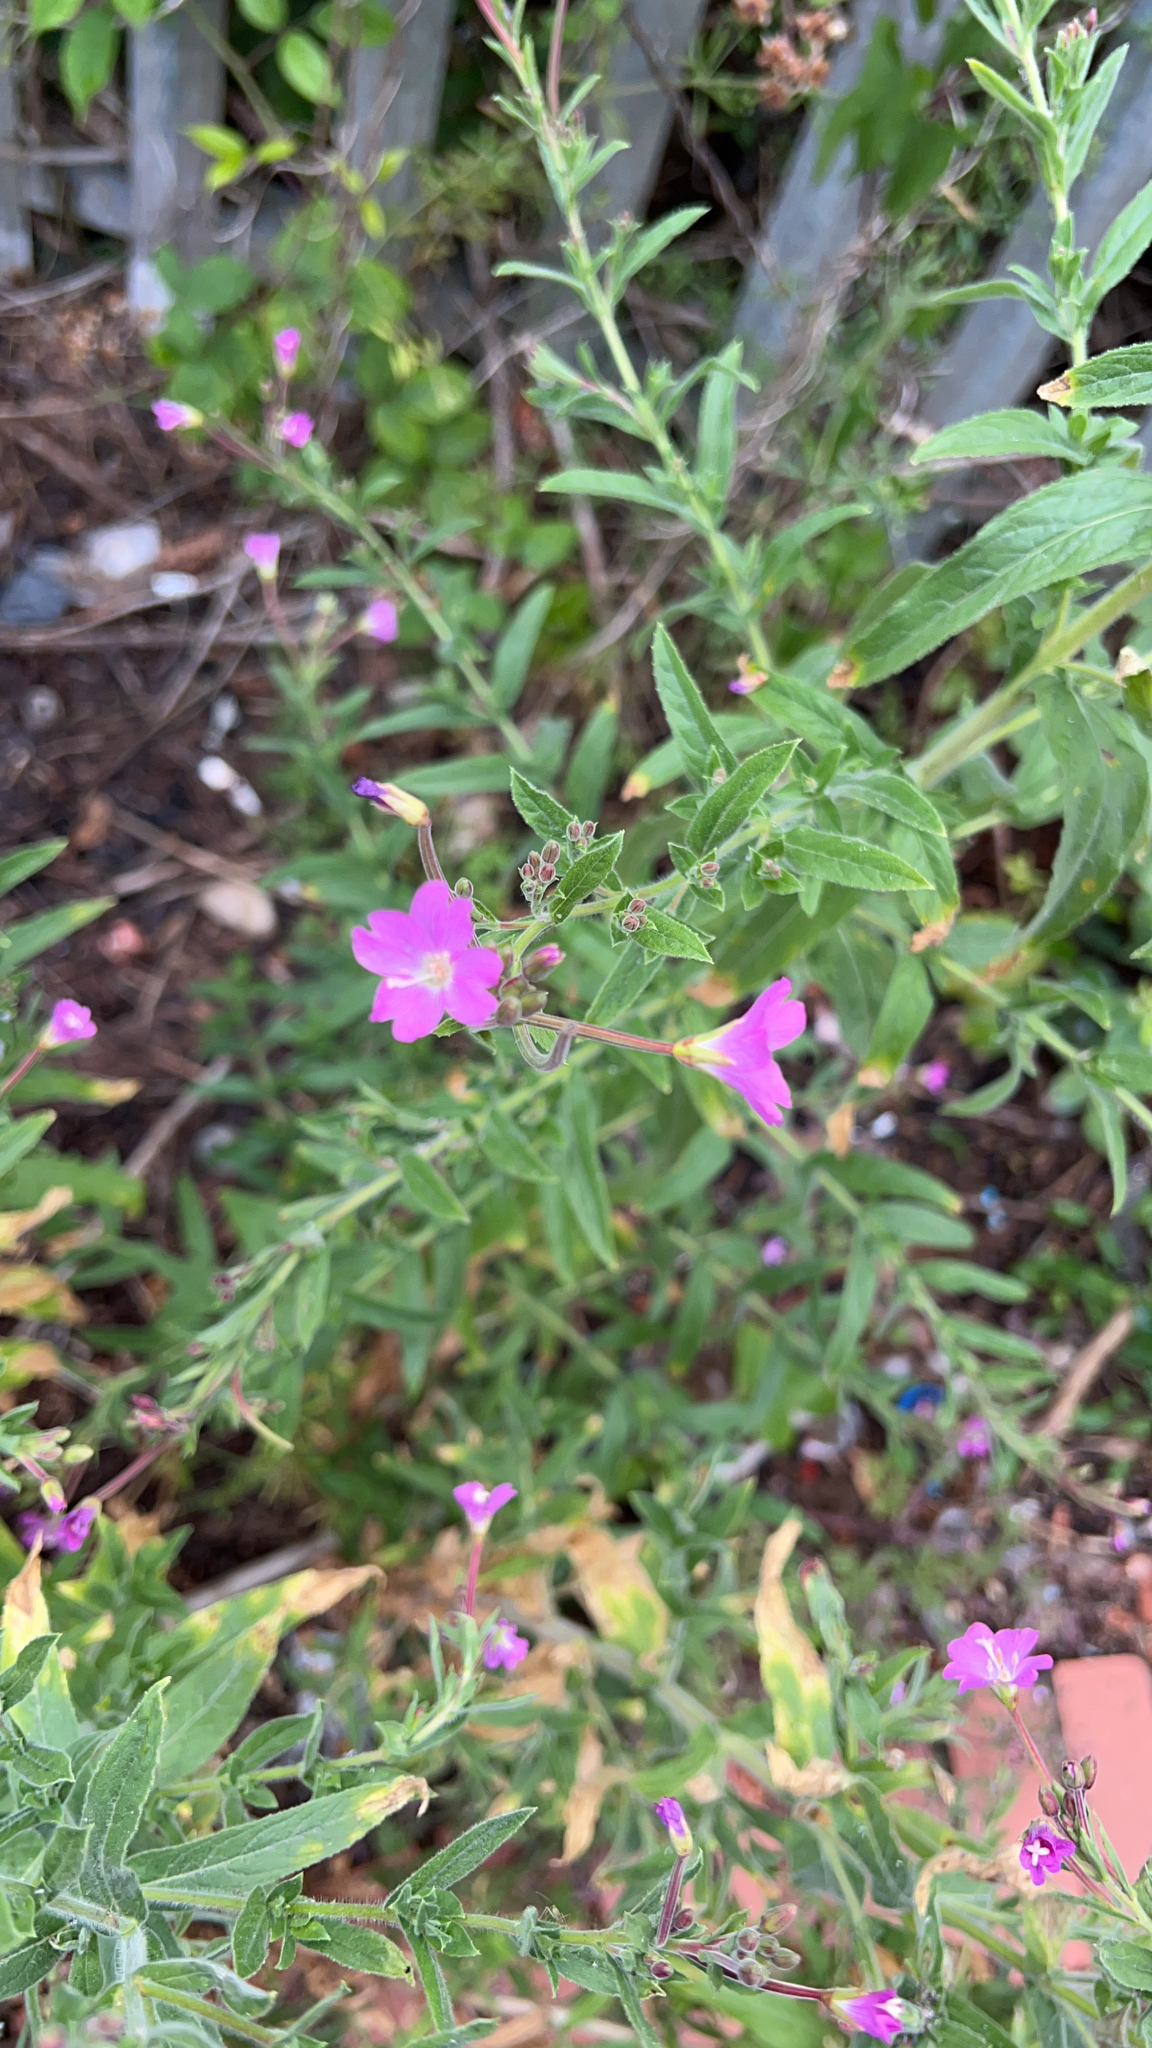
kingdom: Plantae
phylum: Tracheophyta
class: Magnoliopsida
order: Myrtales
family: Onagraceae
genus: Epilobium
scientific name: Epilobium hirsutum
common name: Great willowherb
